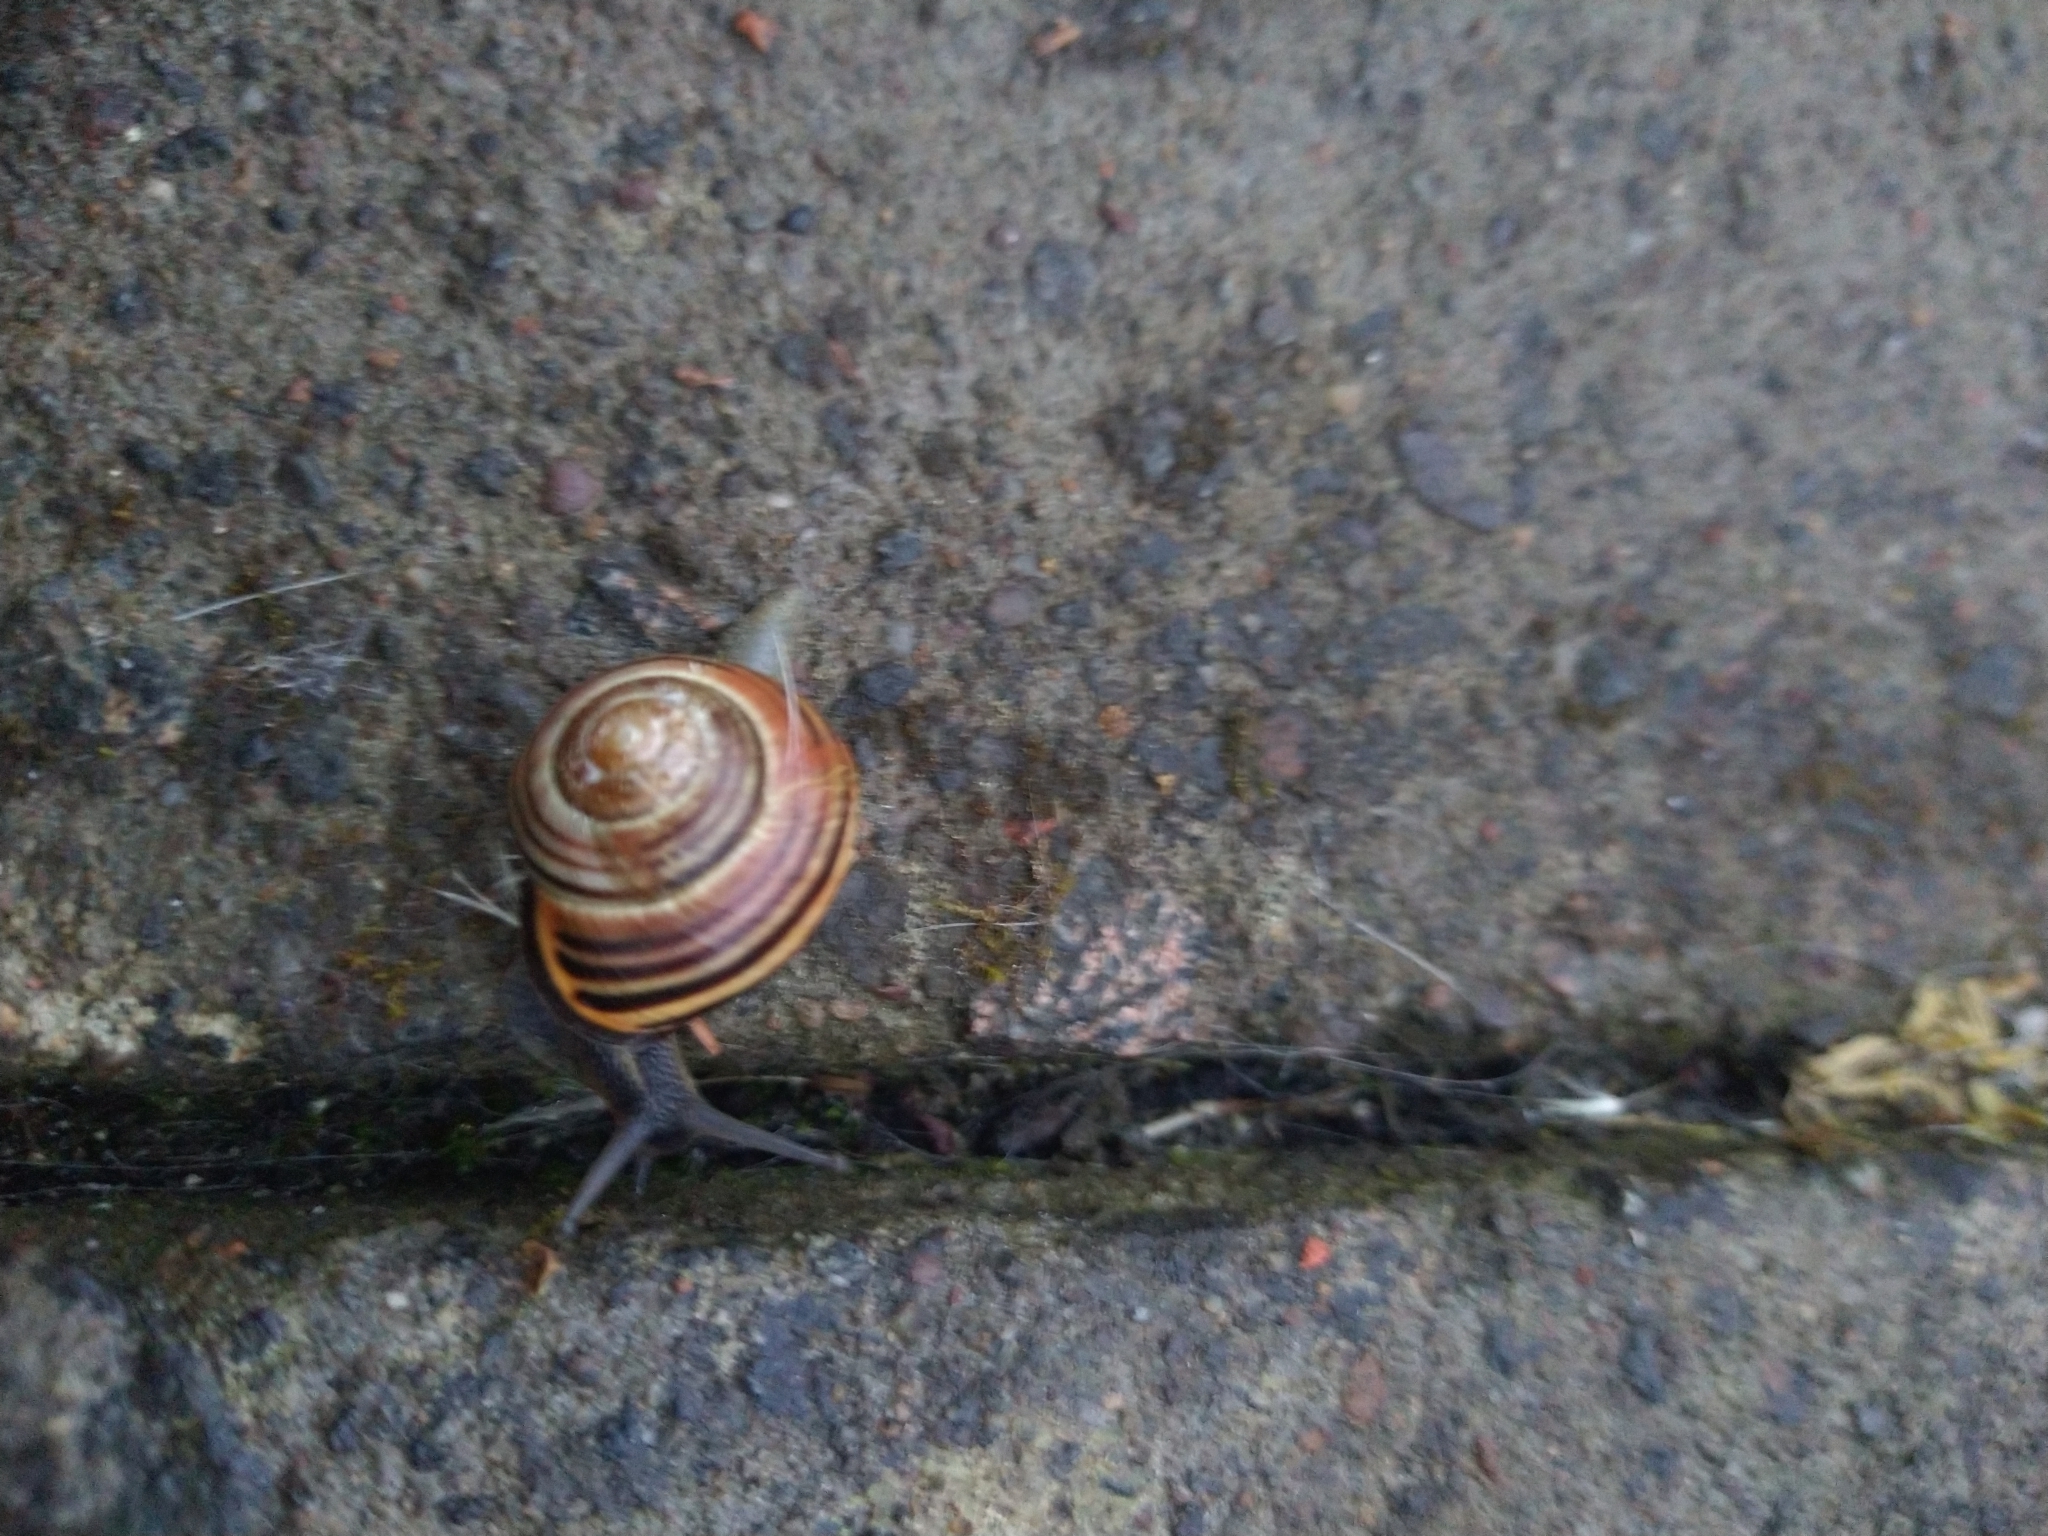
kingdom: Animalia
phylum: Mollusca
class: Gastropoda
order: Stylommatophora
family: Helicidae
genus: Cepaea
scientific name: Cepaea nemoralis
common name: Grovesnail
